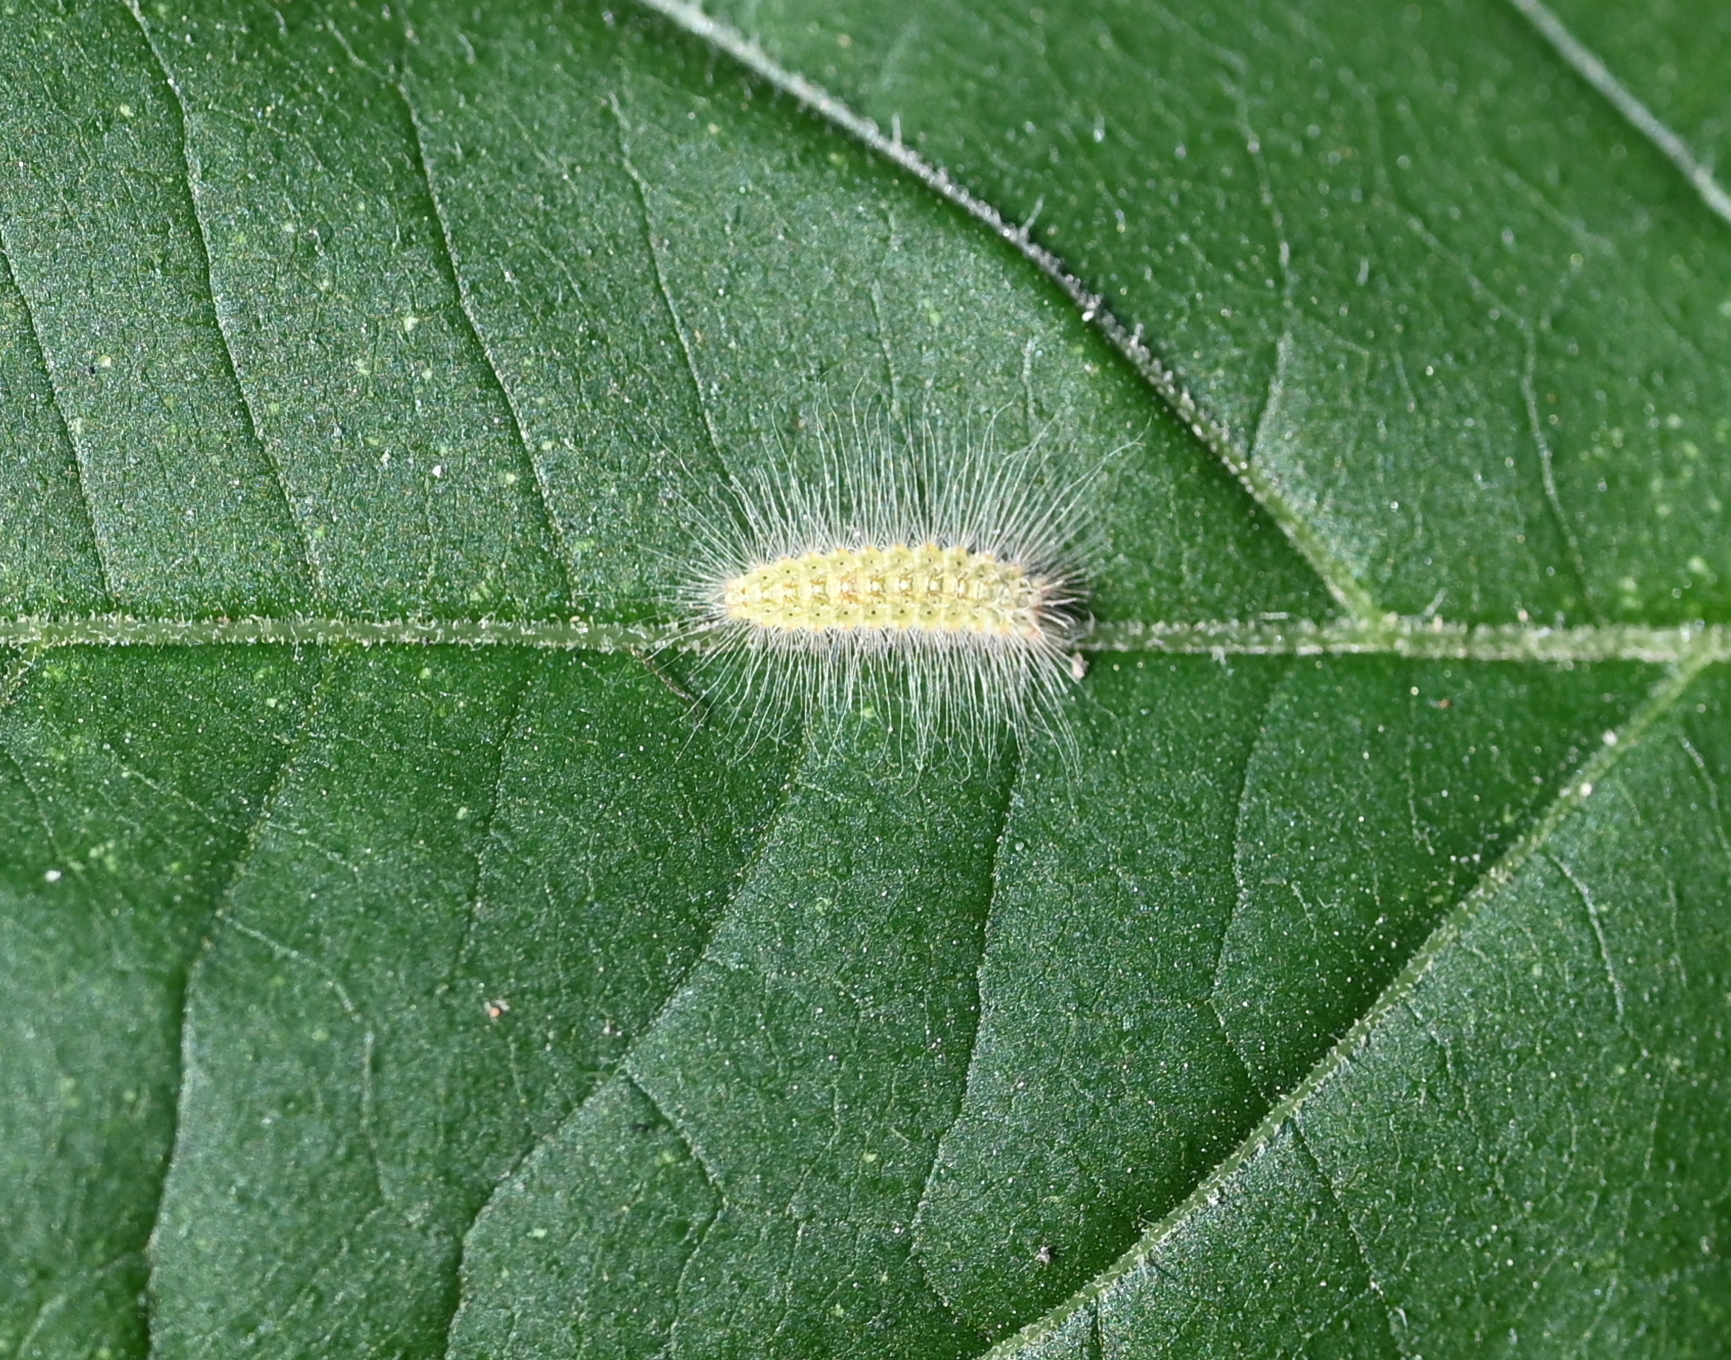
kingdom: Animalia
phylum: Arthropoda
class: Insecta
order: Lepidoptera
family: Pterophoridae
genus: Adaina
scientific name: Adaina ambrosiae
